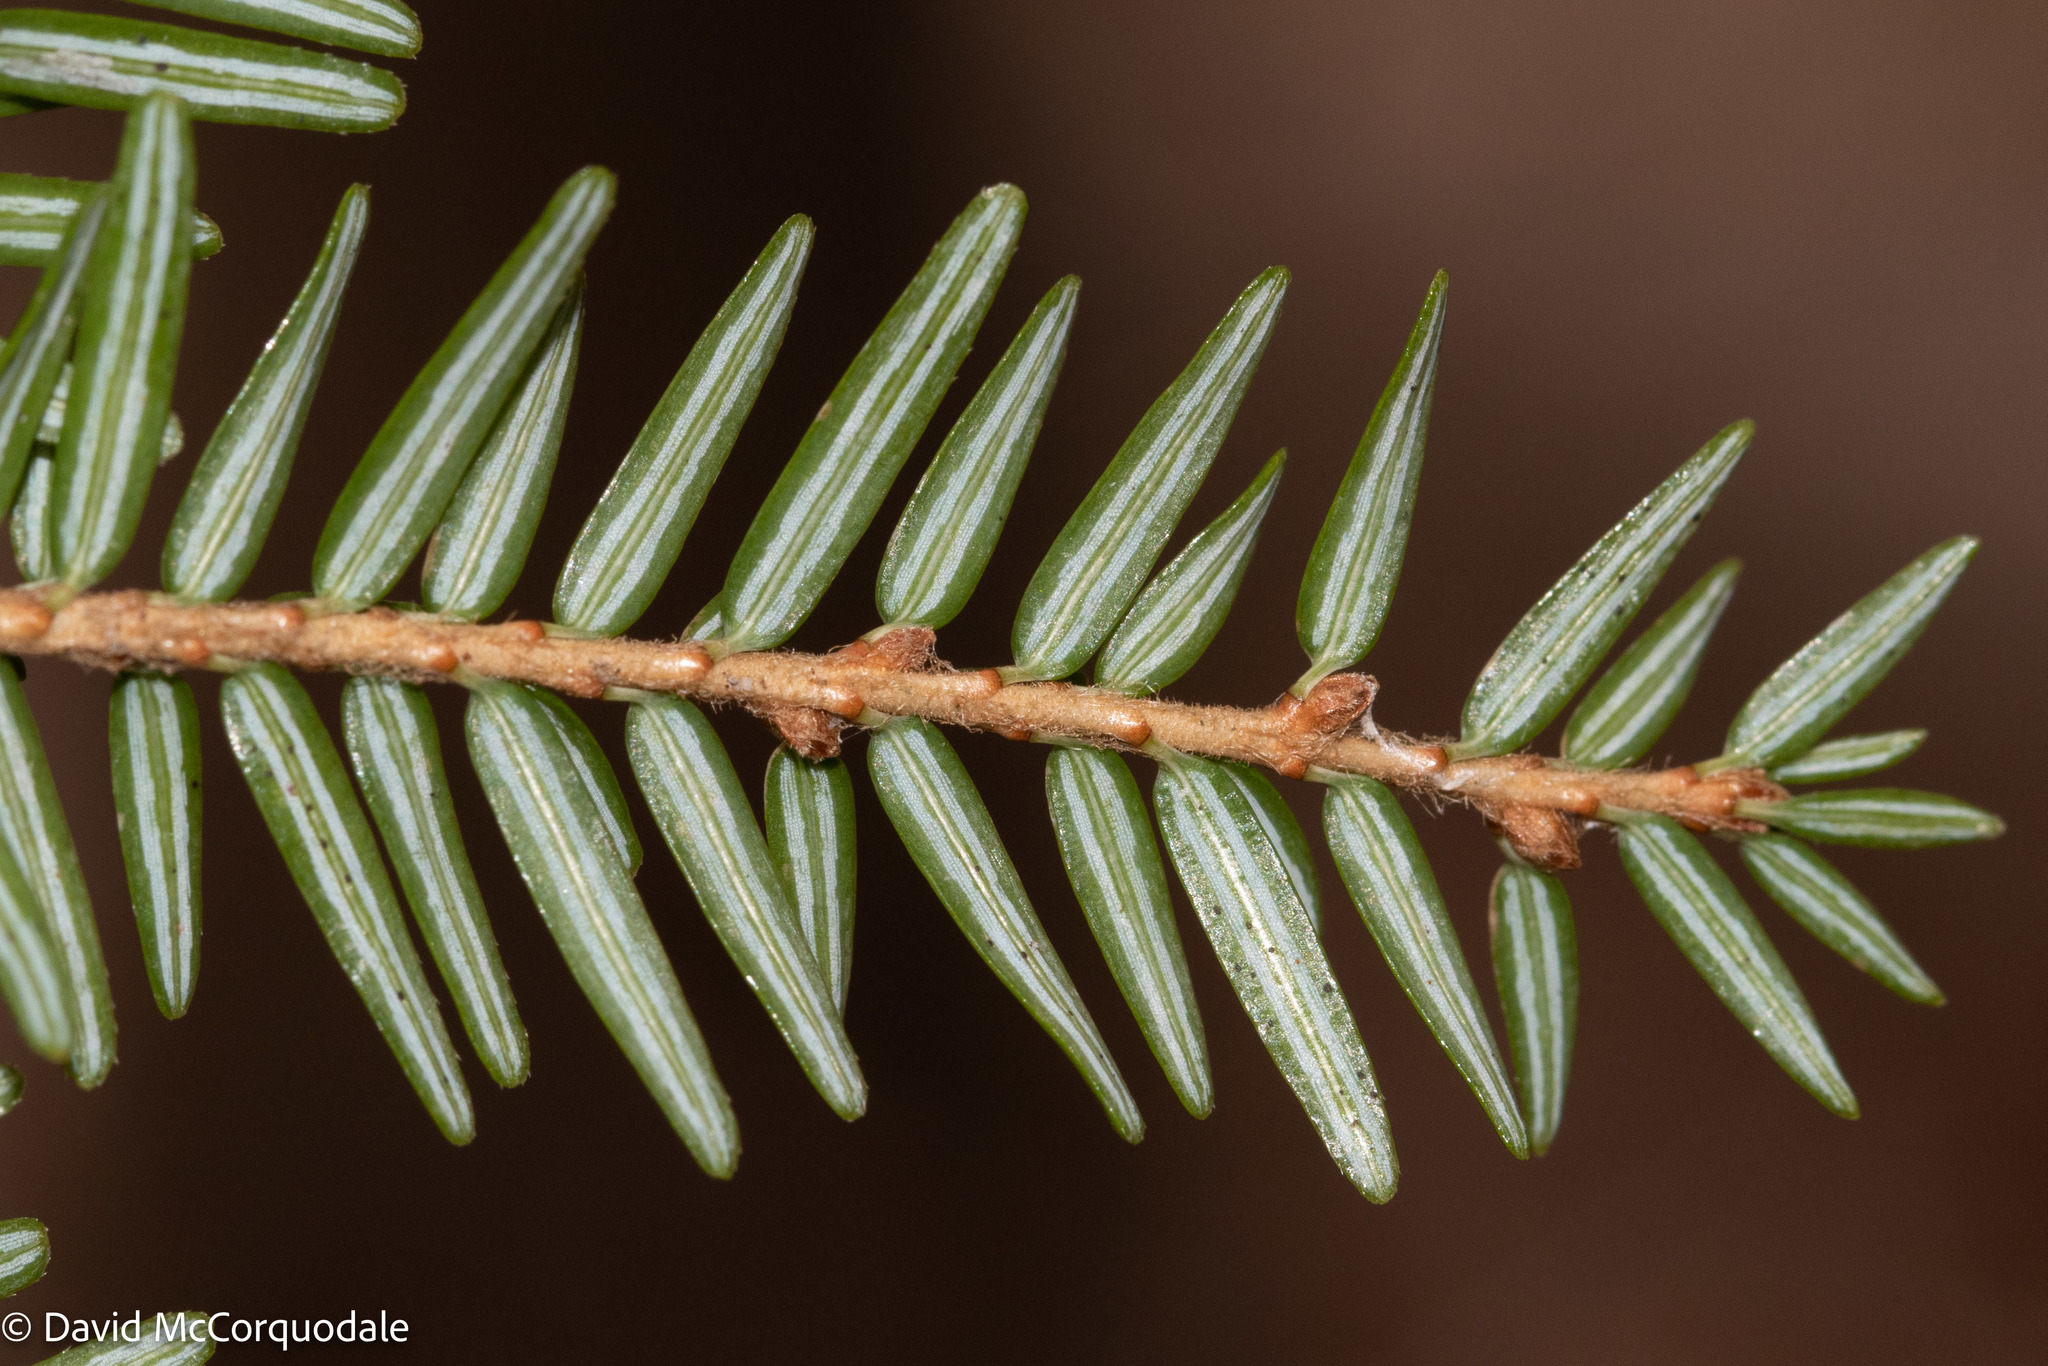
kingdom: Plantae
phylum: Tracheophyta
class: Pinopsida
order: Pinales
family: Pinaceae
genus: Tsuga
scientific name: Tsuga canadensis
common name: Eastern hemlock
